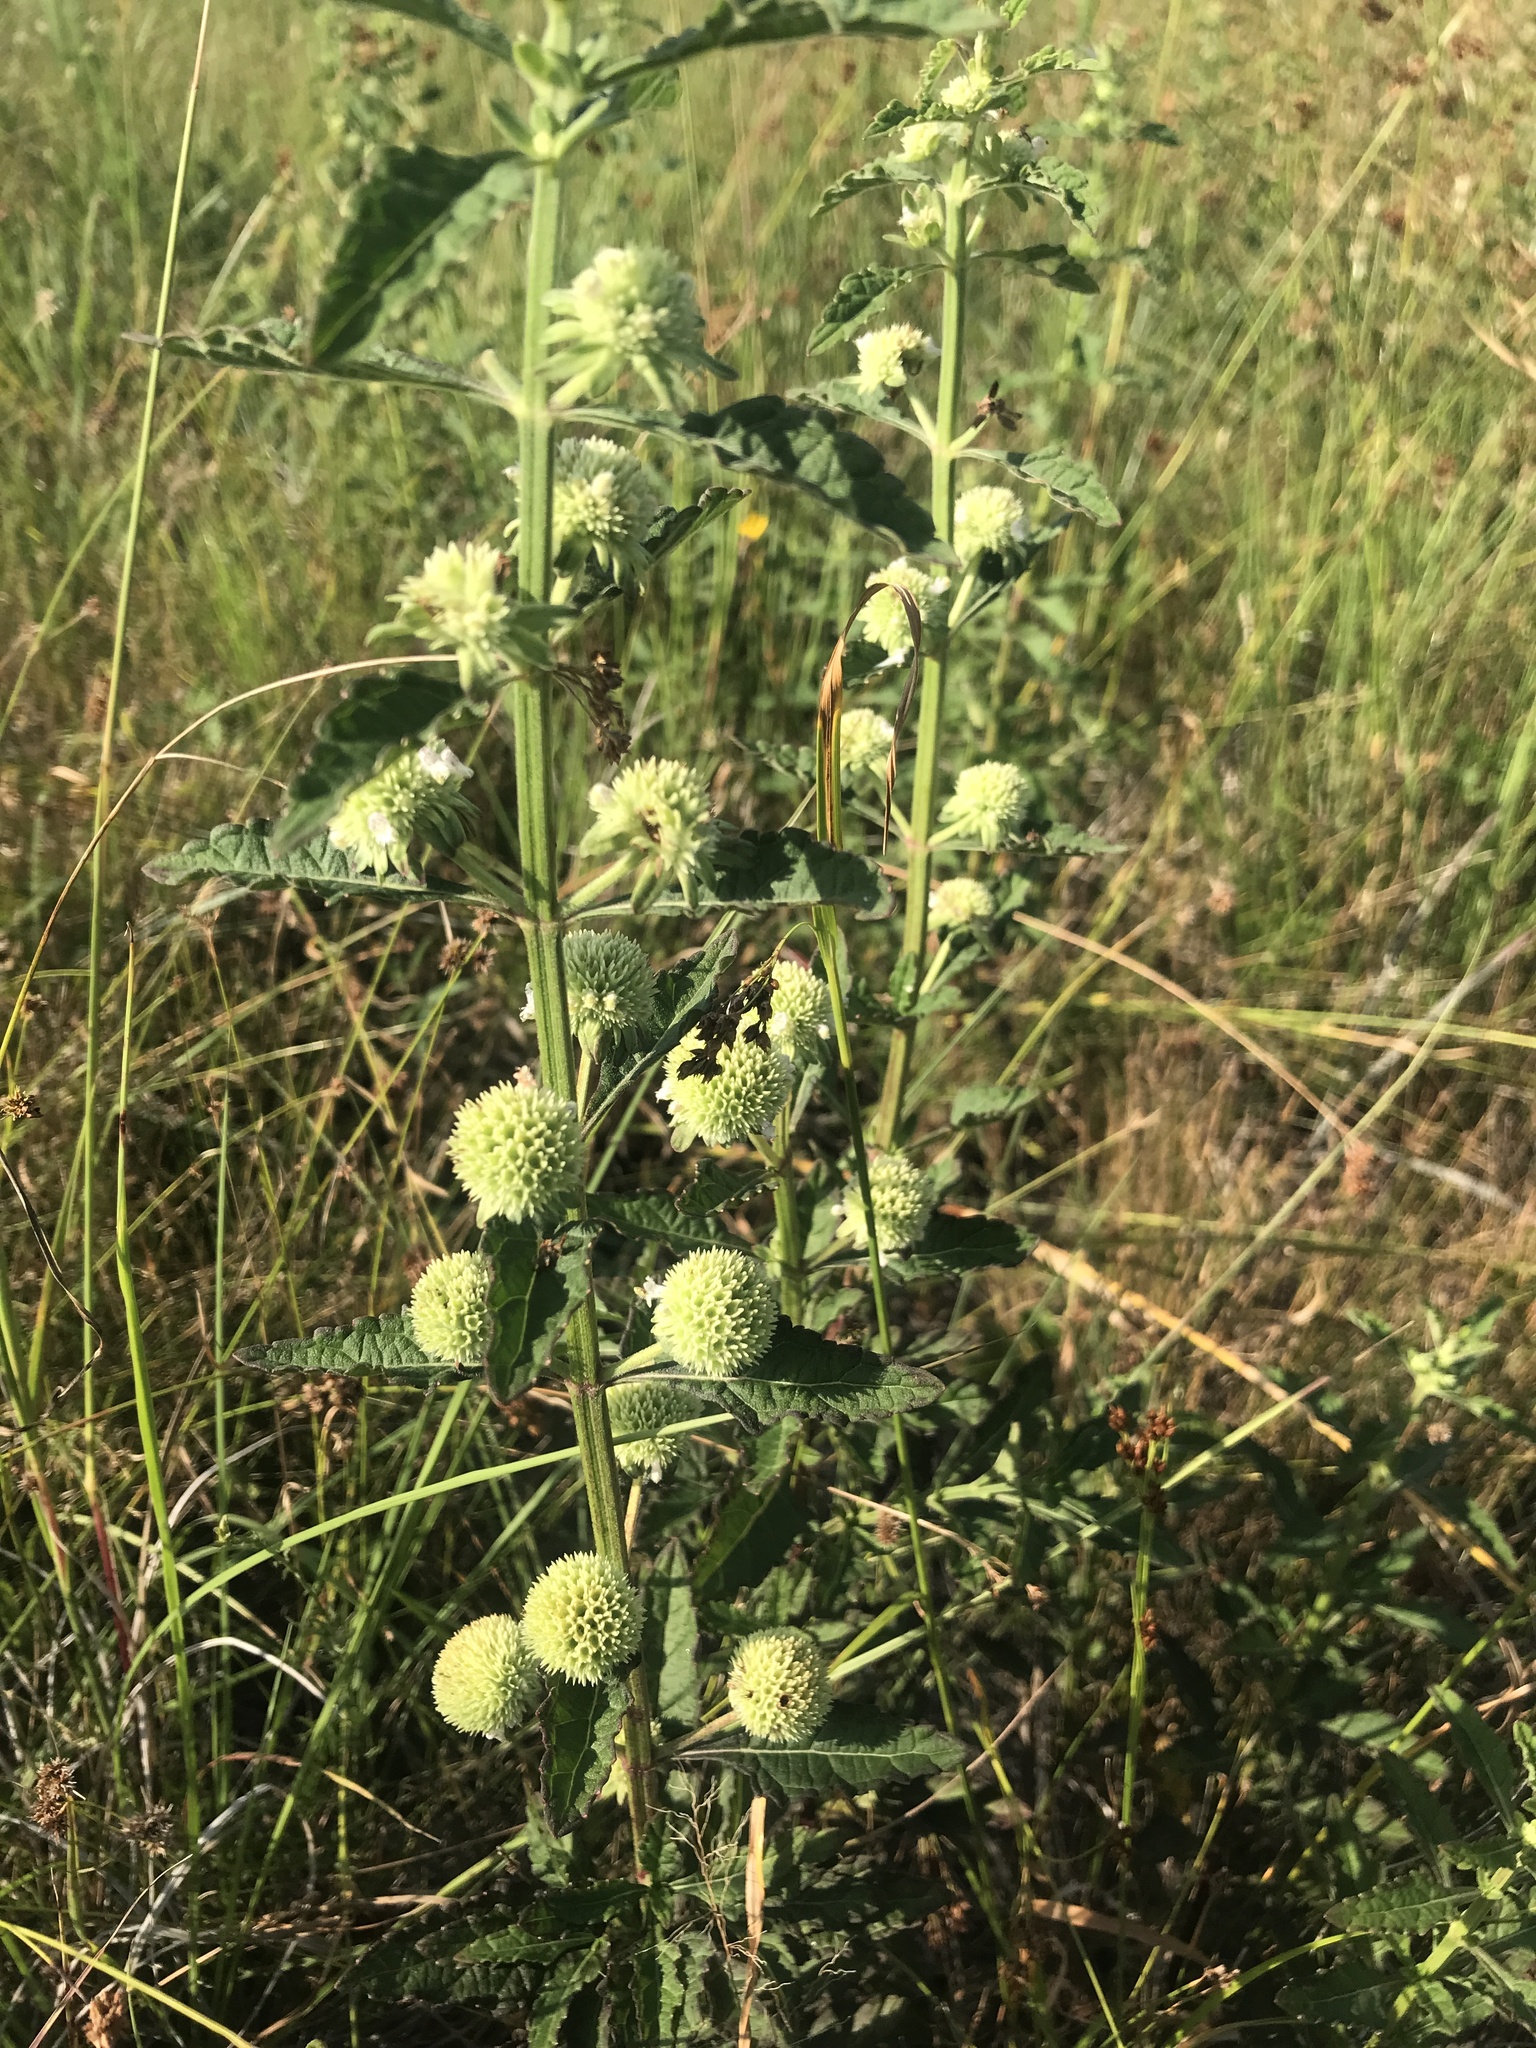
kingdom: Plantae
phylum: Tracheophyta
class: Magnoliopsida
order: Lamiales
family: Lamiaceae
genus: Hyptis
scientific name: Hyptis alata
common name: Cluster bush-mint
